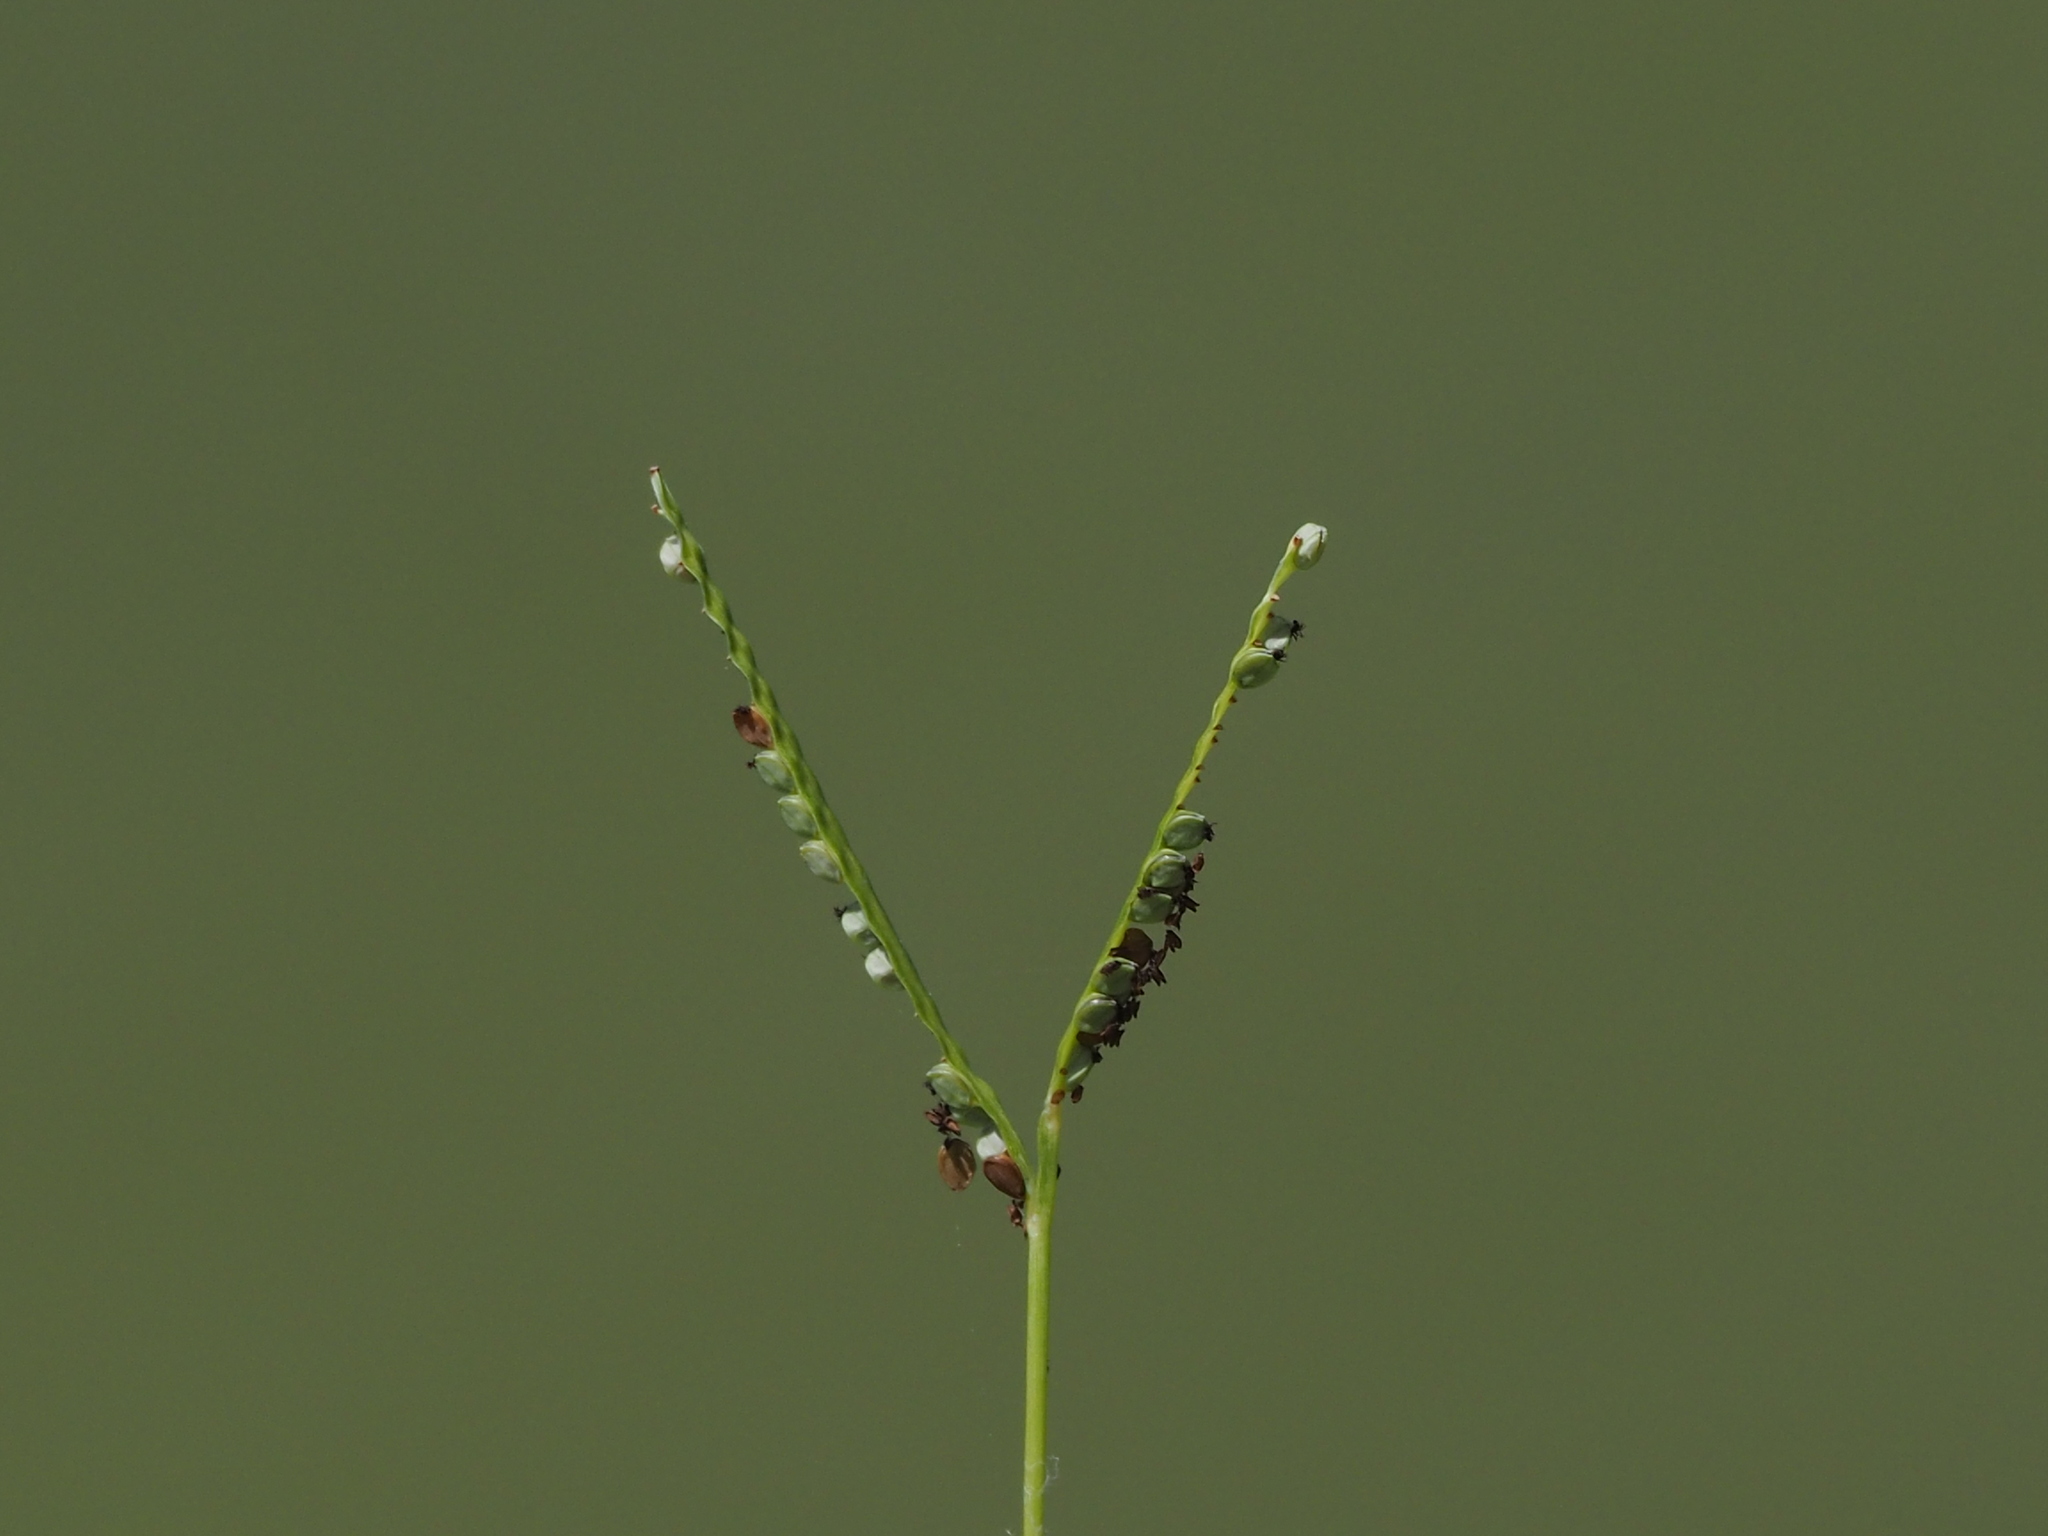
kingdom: Plantae
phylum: Tracheophyta
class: Liliopsida
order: Poales
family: Poaceae
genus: Paspalum
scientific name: Paspalum orbiculare
